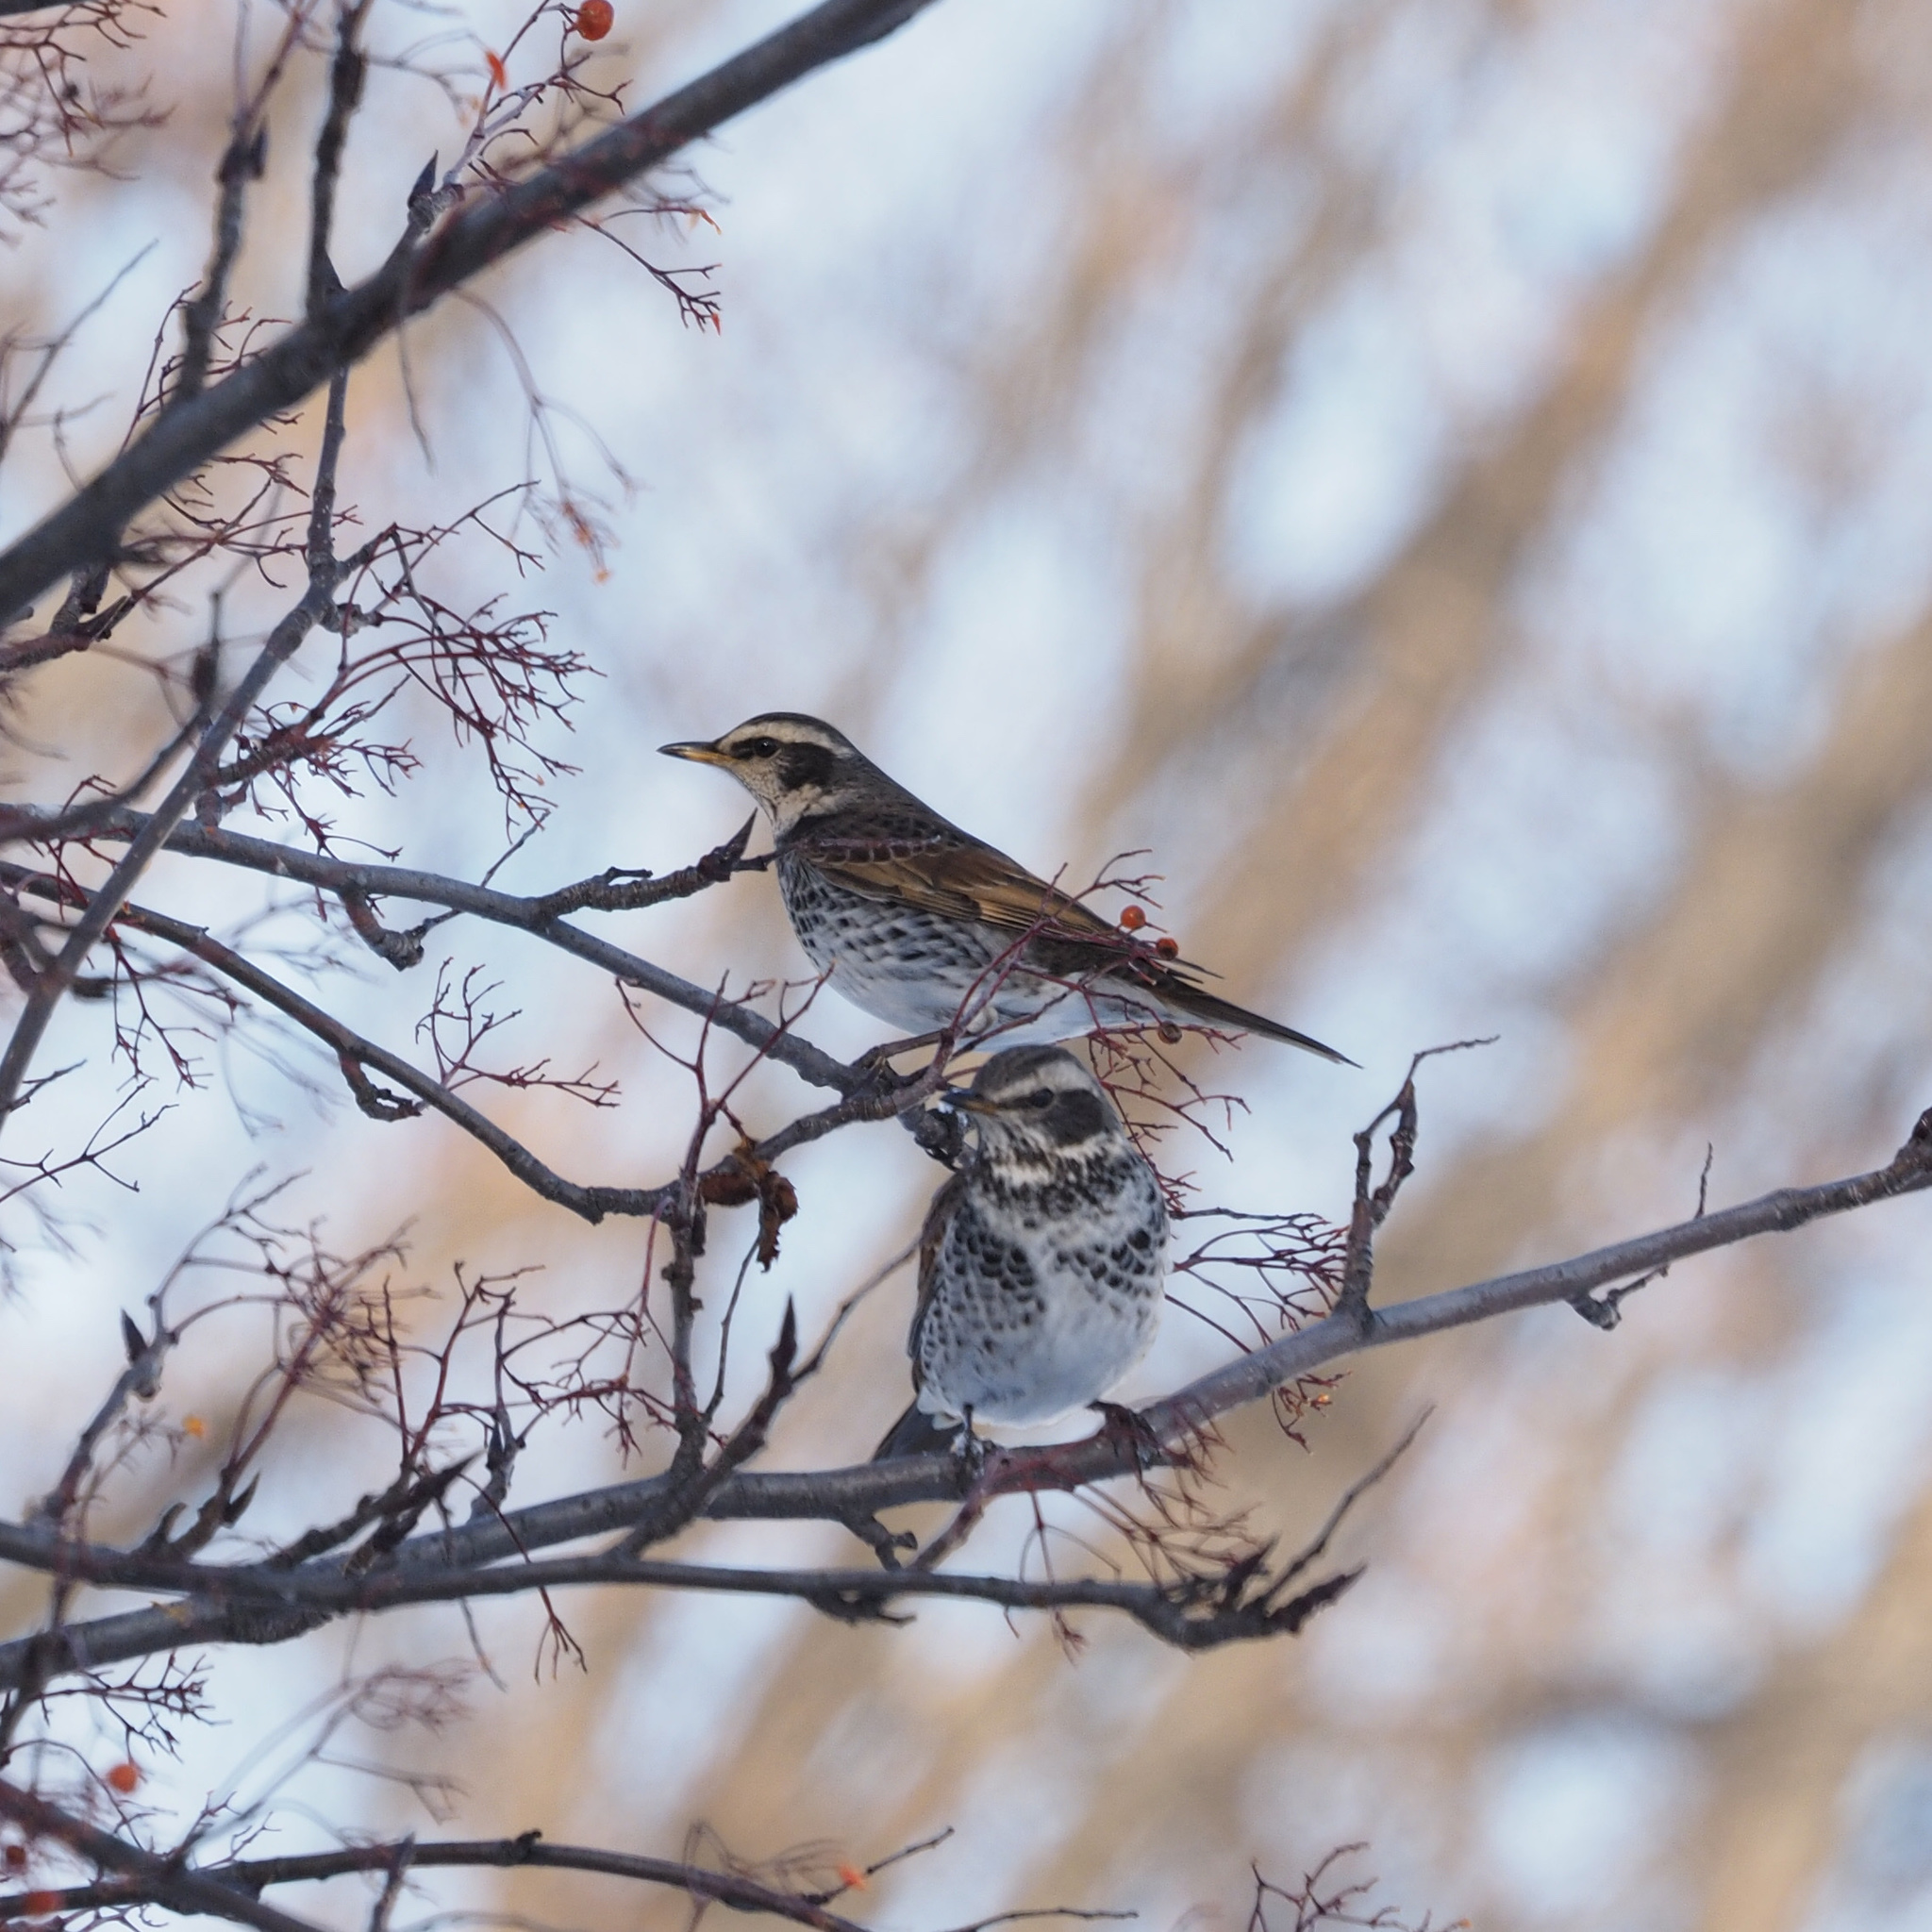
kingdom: Animalia
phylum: Chordata
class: Aves
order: Passeriformes
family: Turdidae
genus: Turdus
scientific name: Turdus eunomus
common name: Dusky thrush
